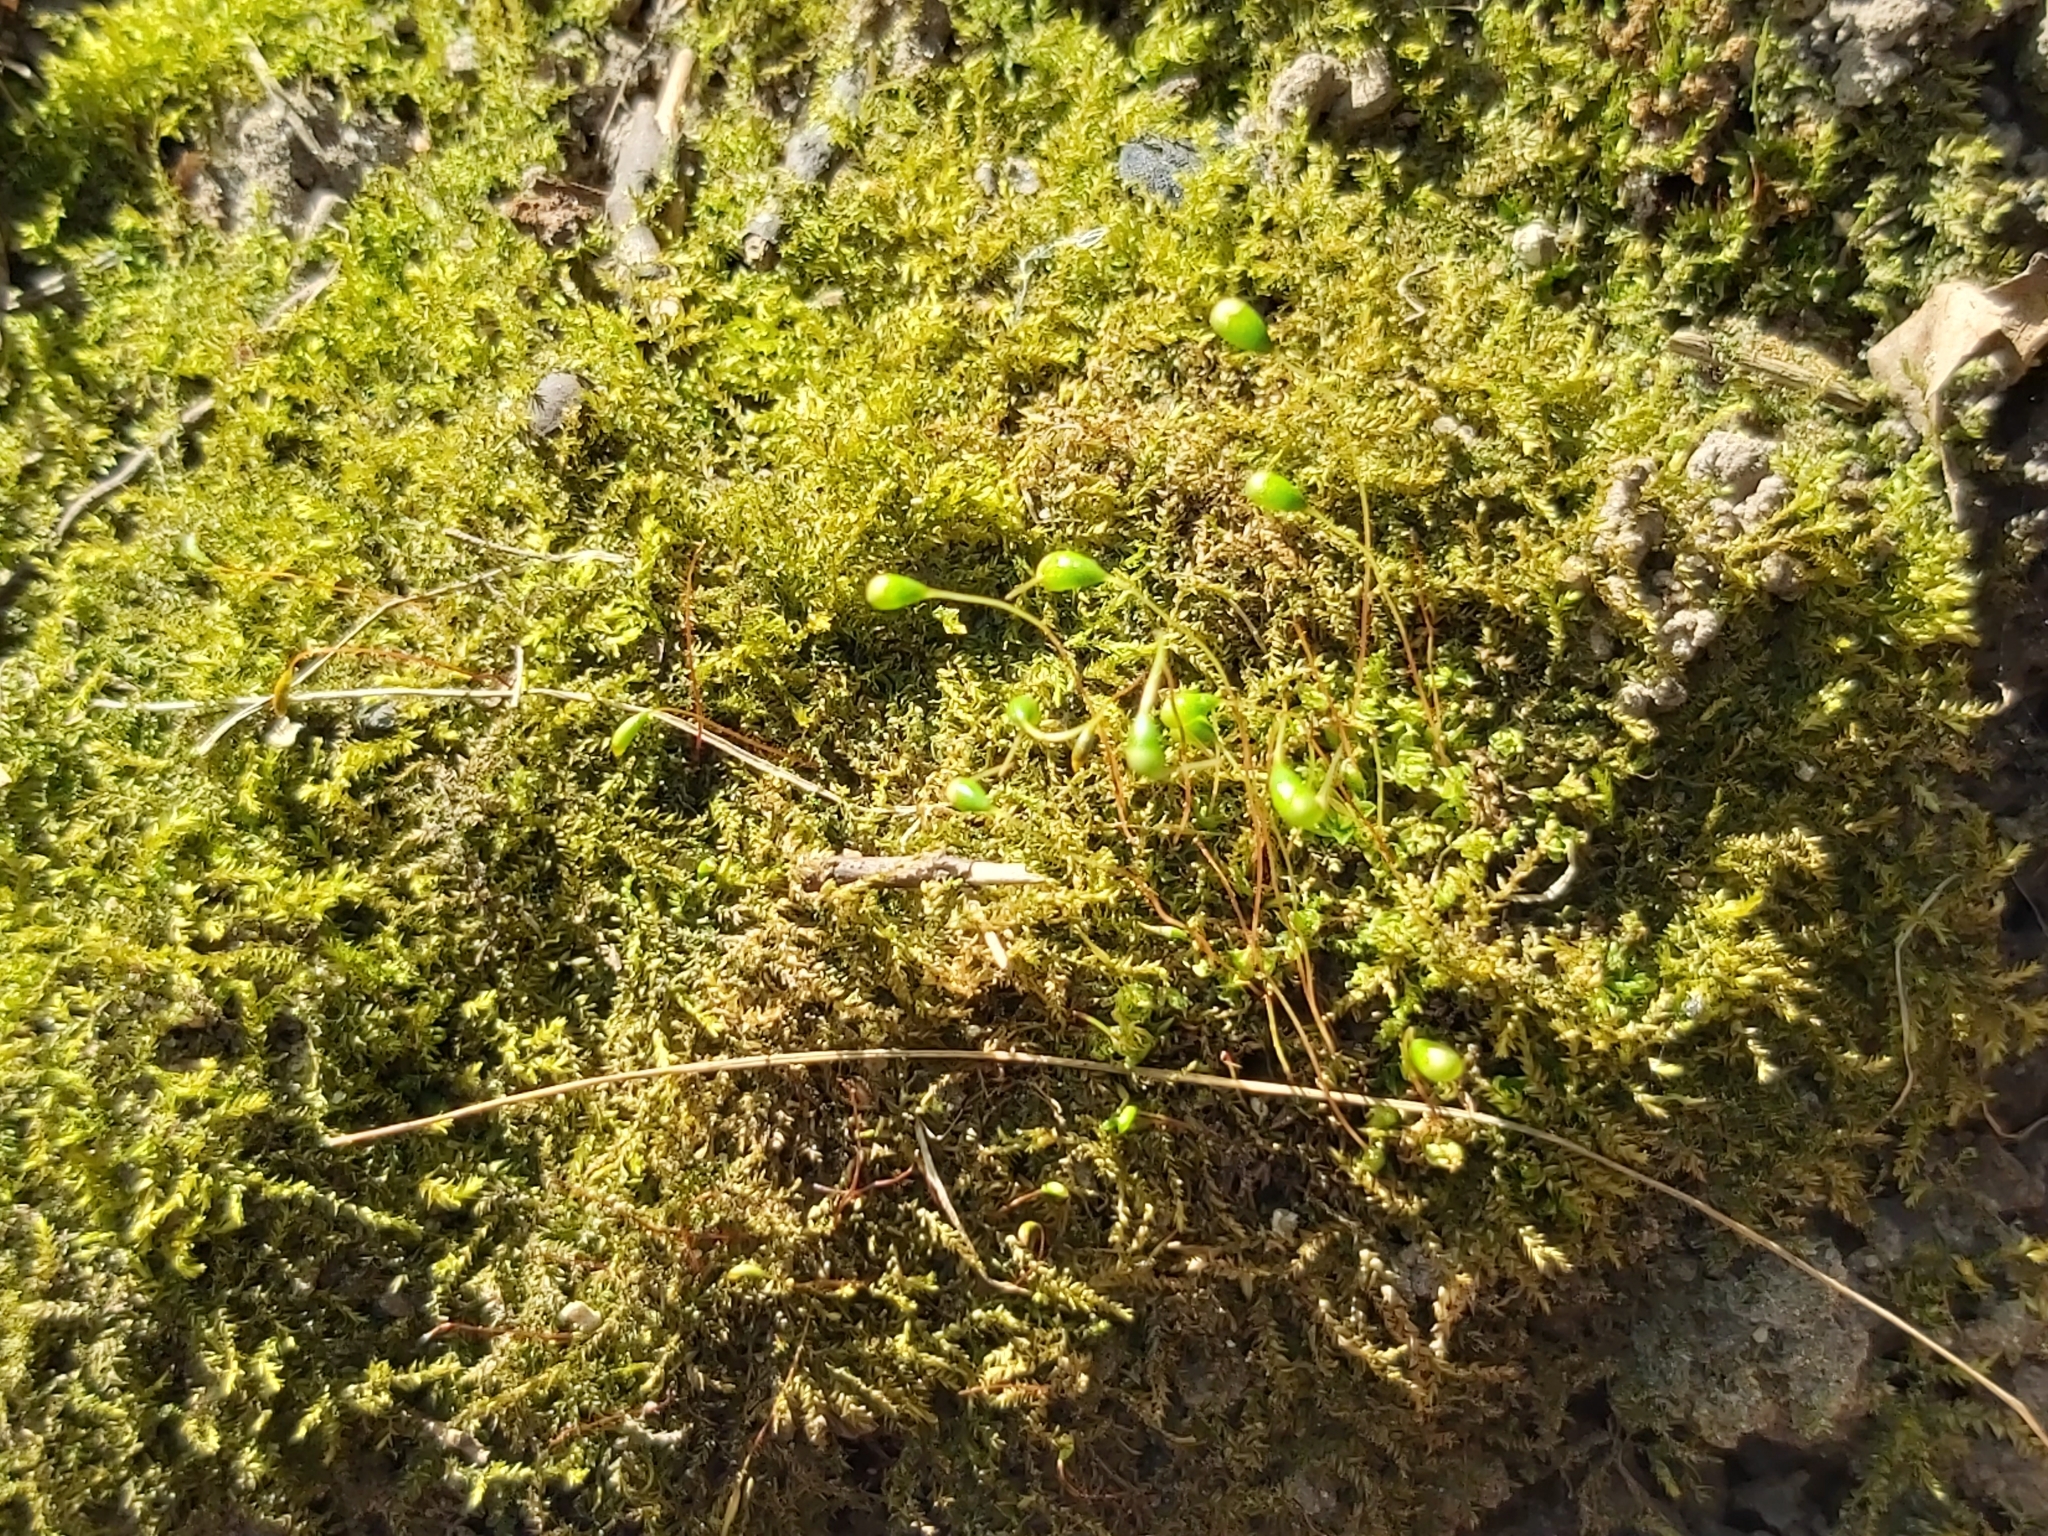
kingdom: Plantae
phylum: Bryophyta
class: Bryopsida
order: Funariales
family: Funariaceae
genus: Funaria
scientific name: Funaria hygrometrica
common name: Common cord moss
